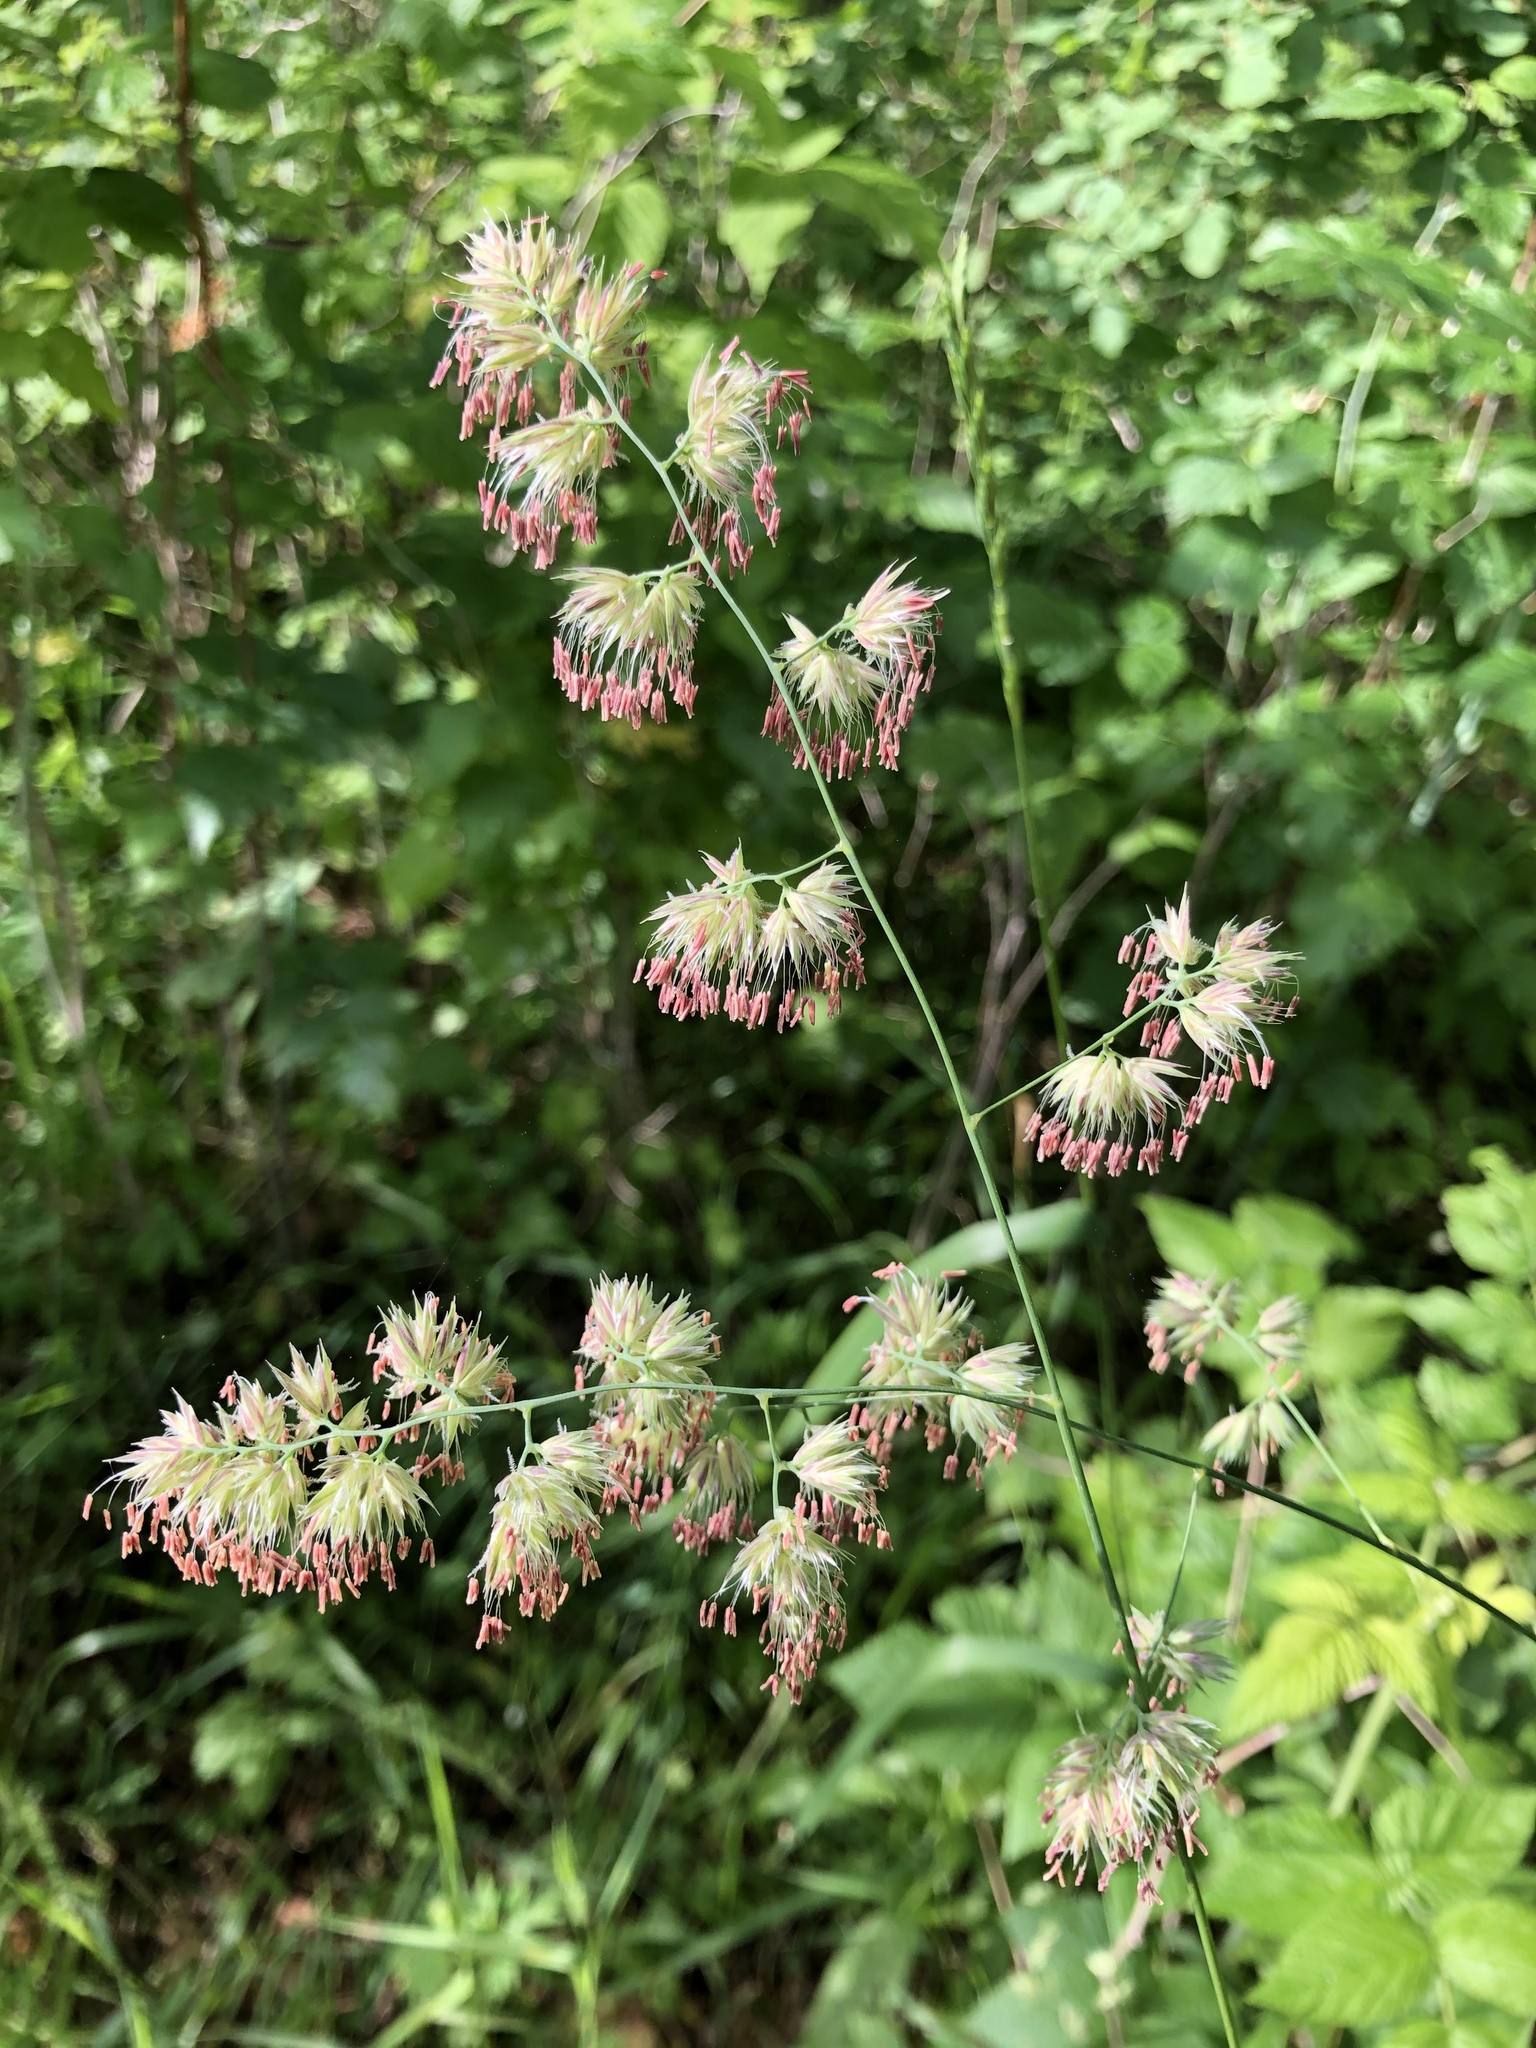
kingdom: Plantae
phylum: Tracheophyta
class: Liliopsida
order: Poales
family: Poaceae
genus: Dactylis
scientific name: Dactylis glomerata
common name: Orchardgrass
